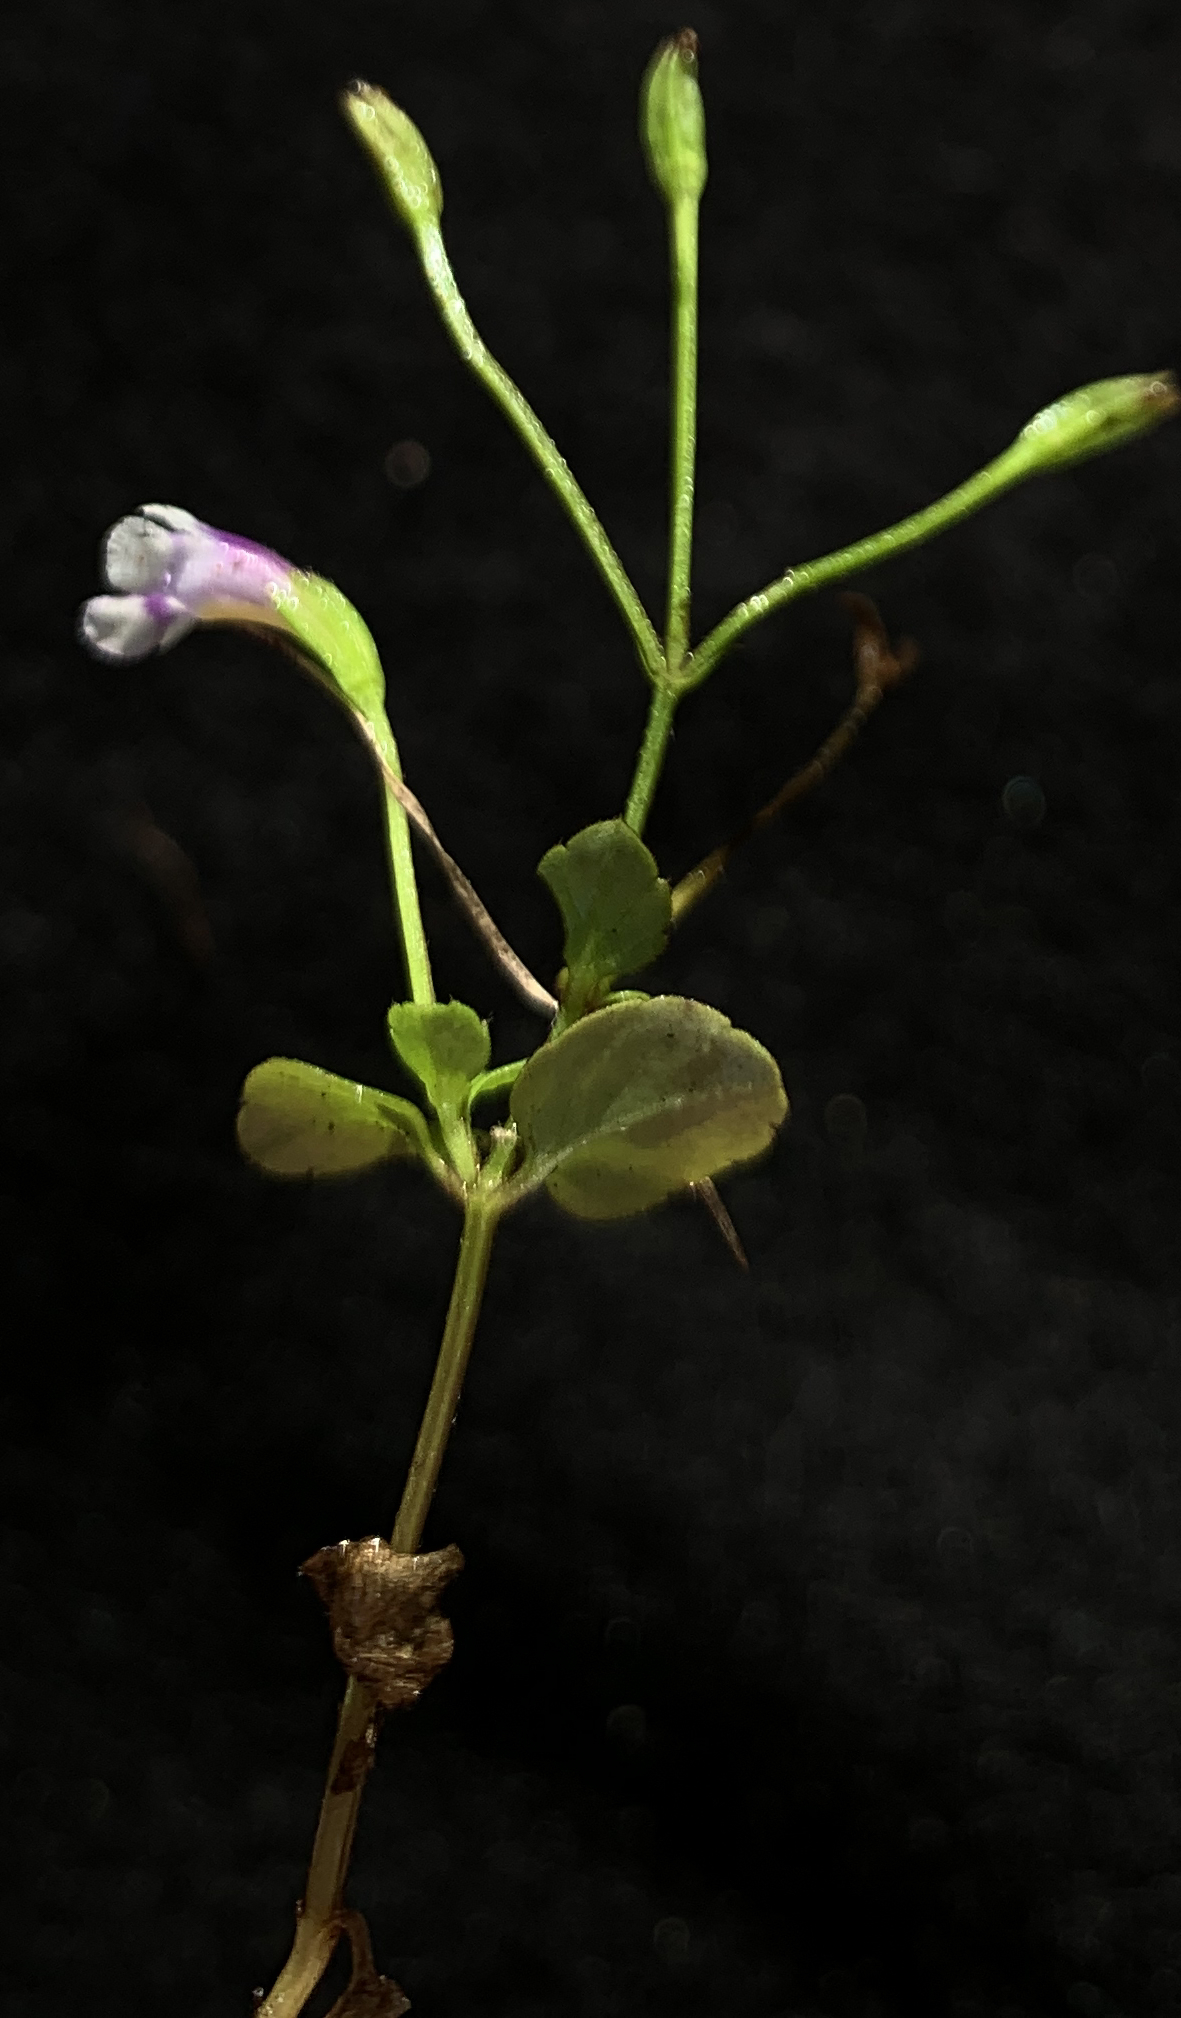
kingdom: Plantae
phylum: Tracheophyta
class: Magnoliopsida
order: Lamiales
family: Linderniaceae
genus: Torenia
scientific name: Torenia crustacea
